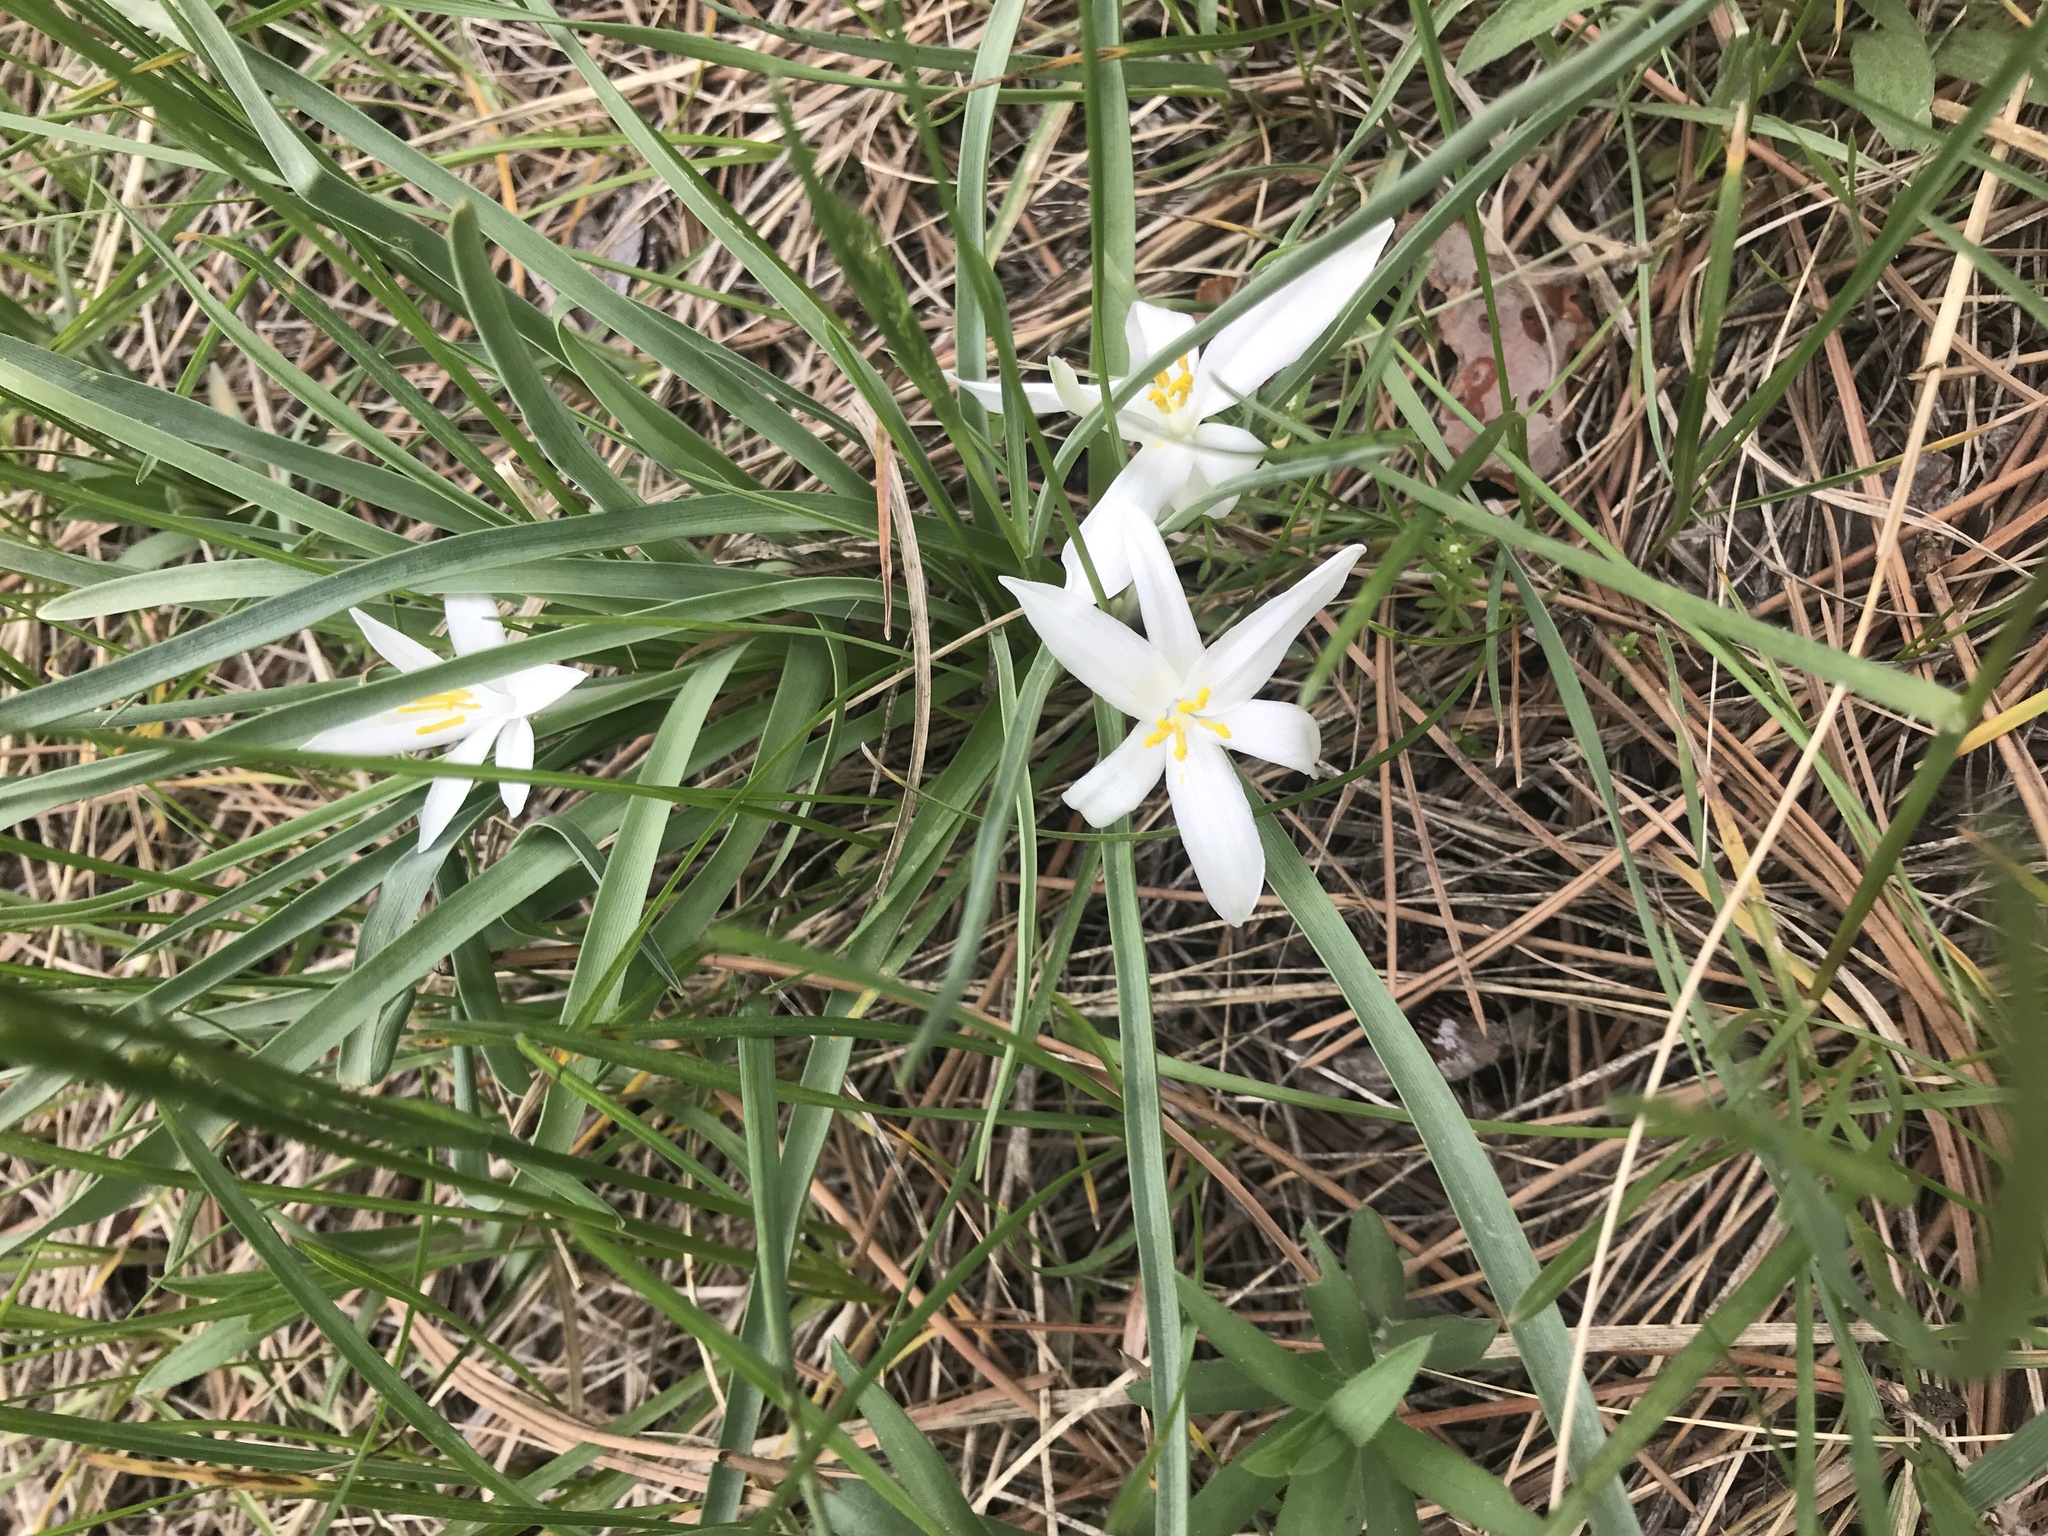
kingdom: Plantae
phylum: Tracheophyta
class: Liliopsida
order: Asparagales
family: Asparagaceae
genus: Leucocrinum
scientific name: Leucocrinum montanum
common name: Mountain-lily
